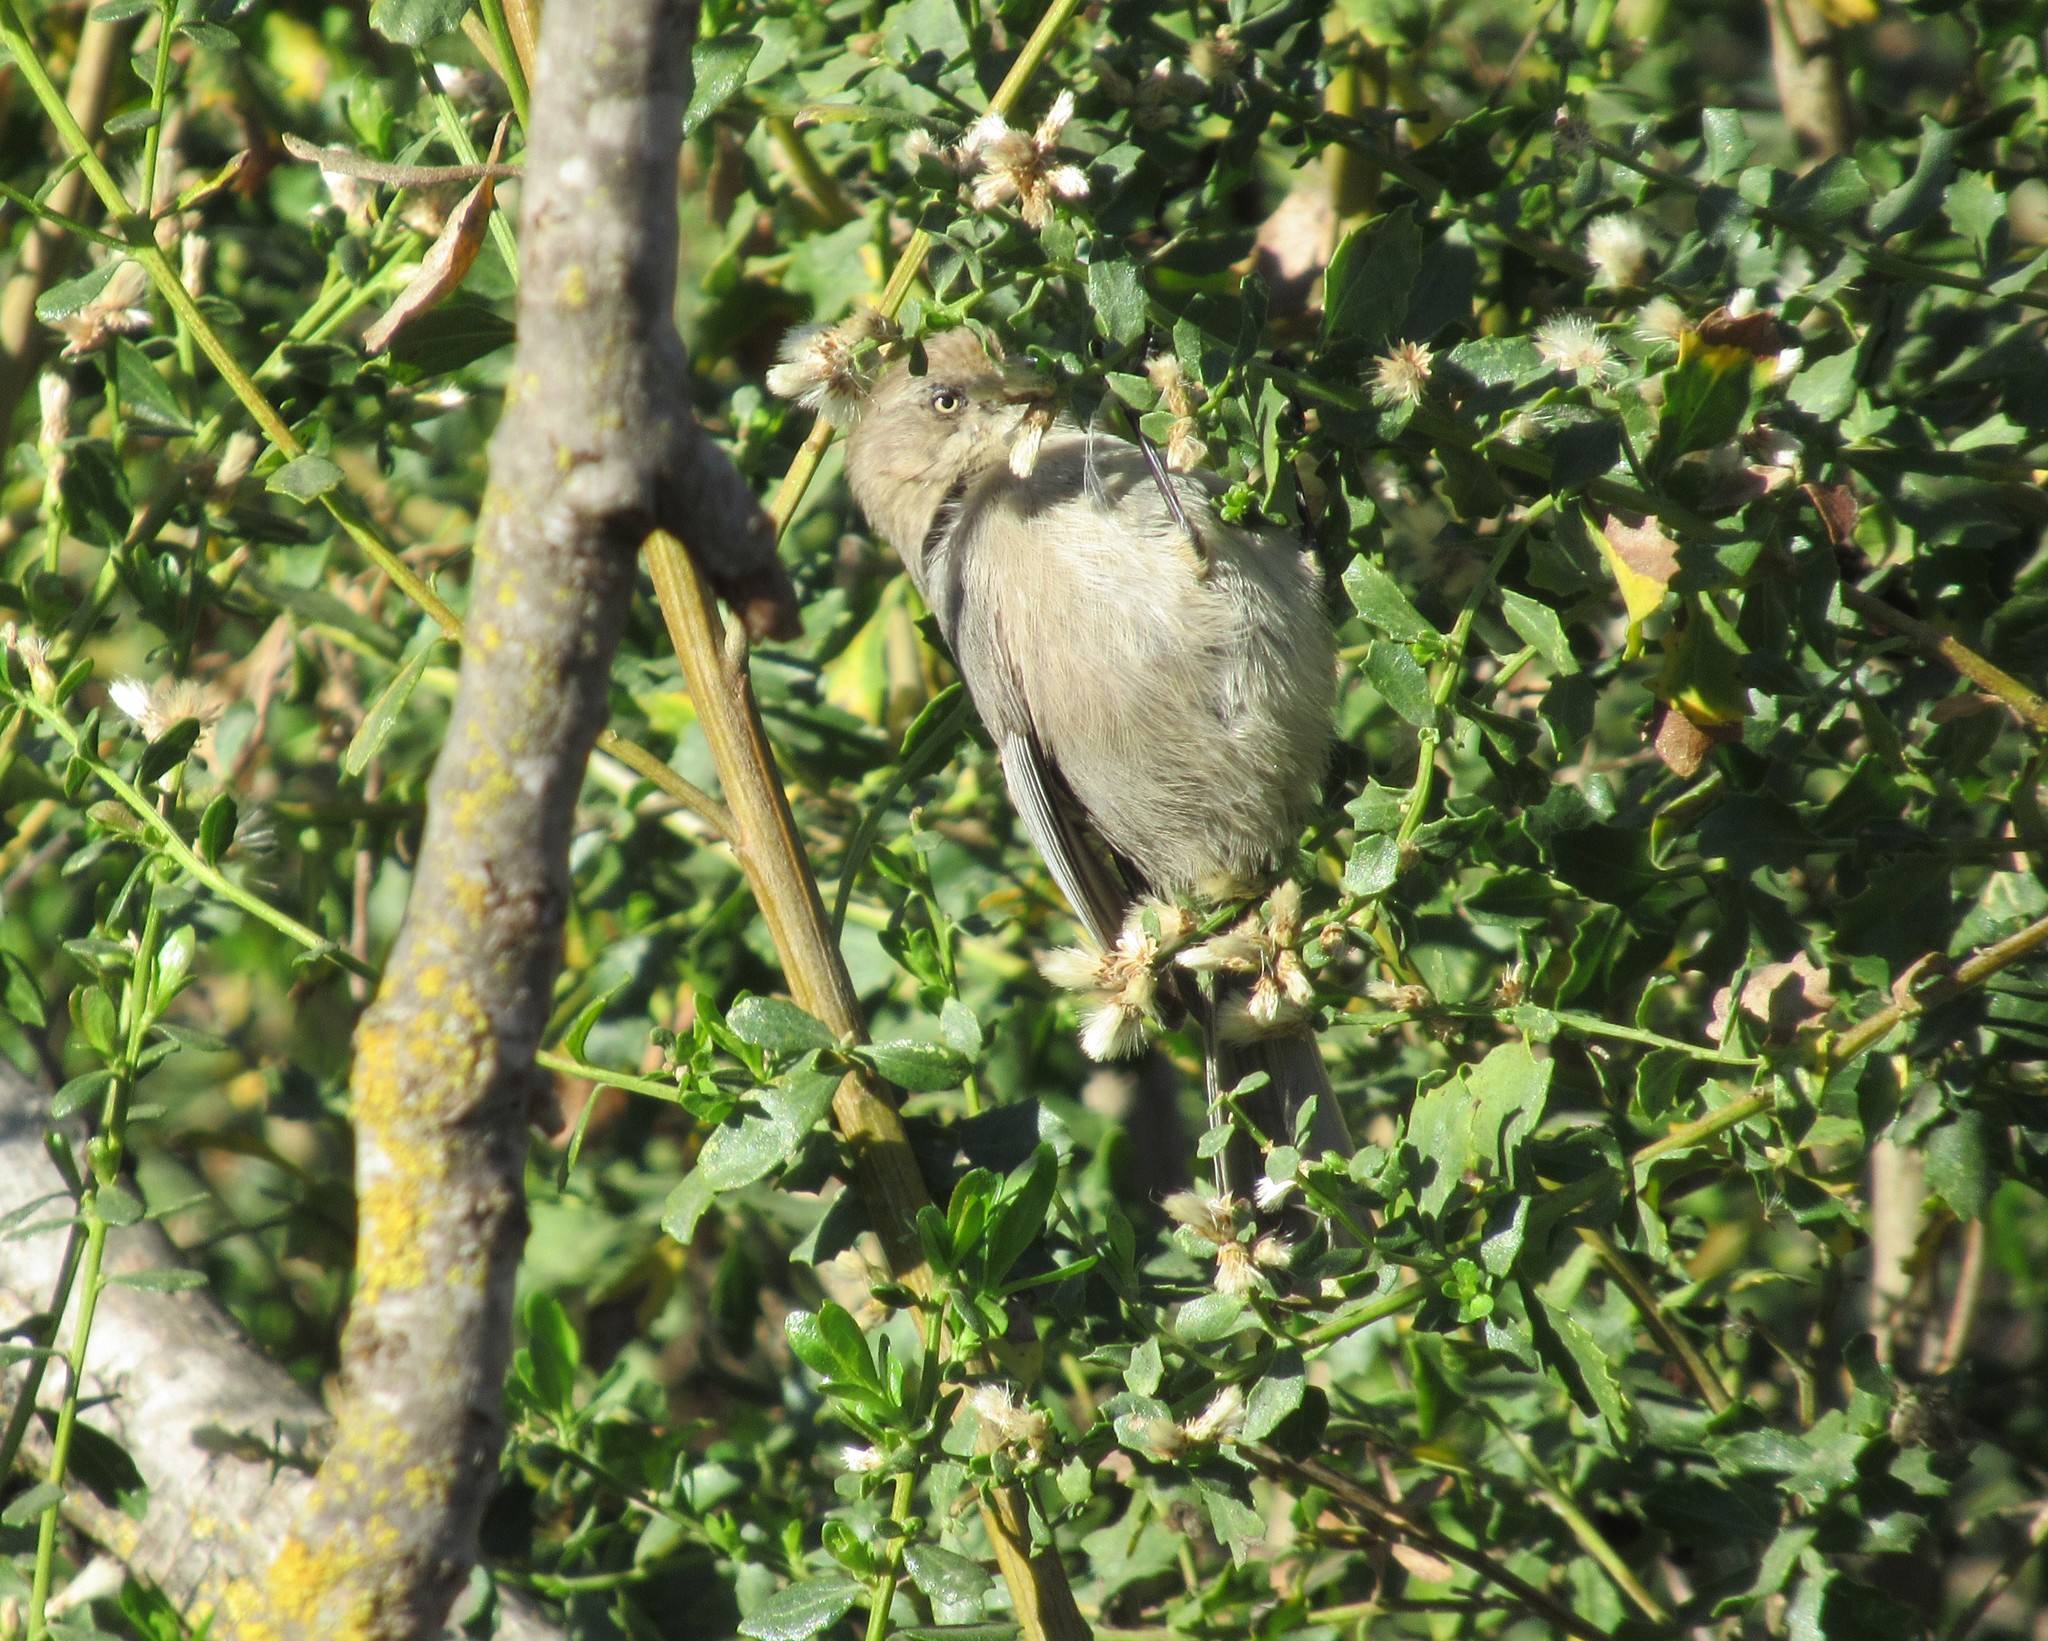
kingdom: Animalia
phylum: Chordata
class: Aves
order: Passeriformes
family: Aegithalidae
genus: Psaltriparus
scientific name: Psaltriparus minimus
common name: American bushtit
